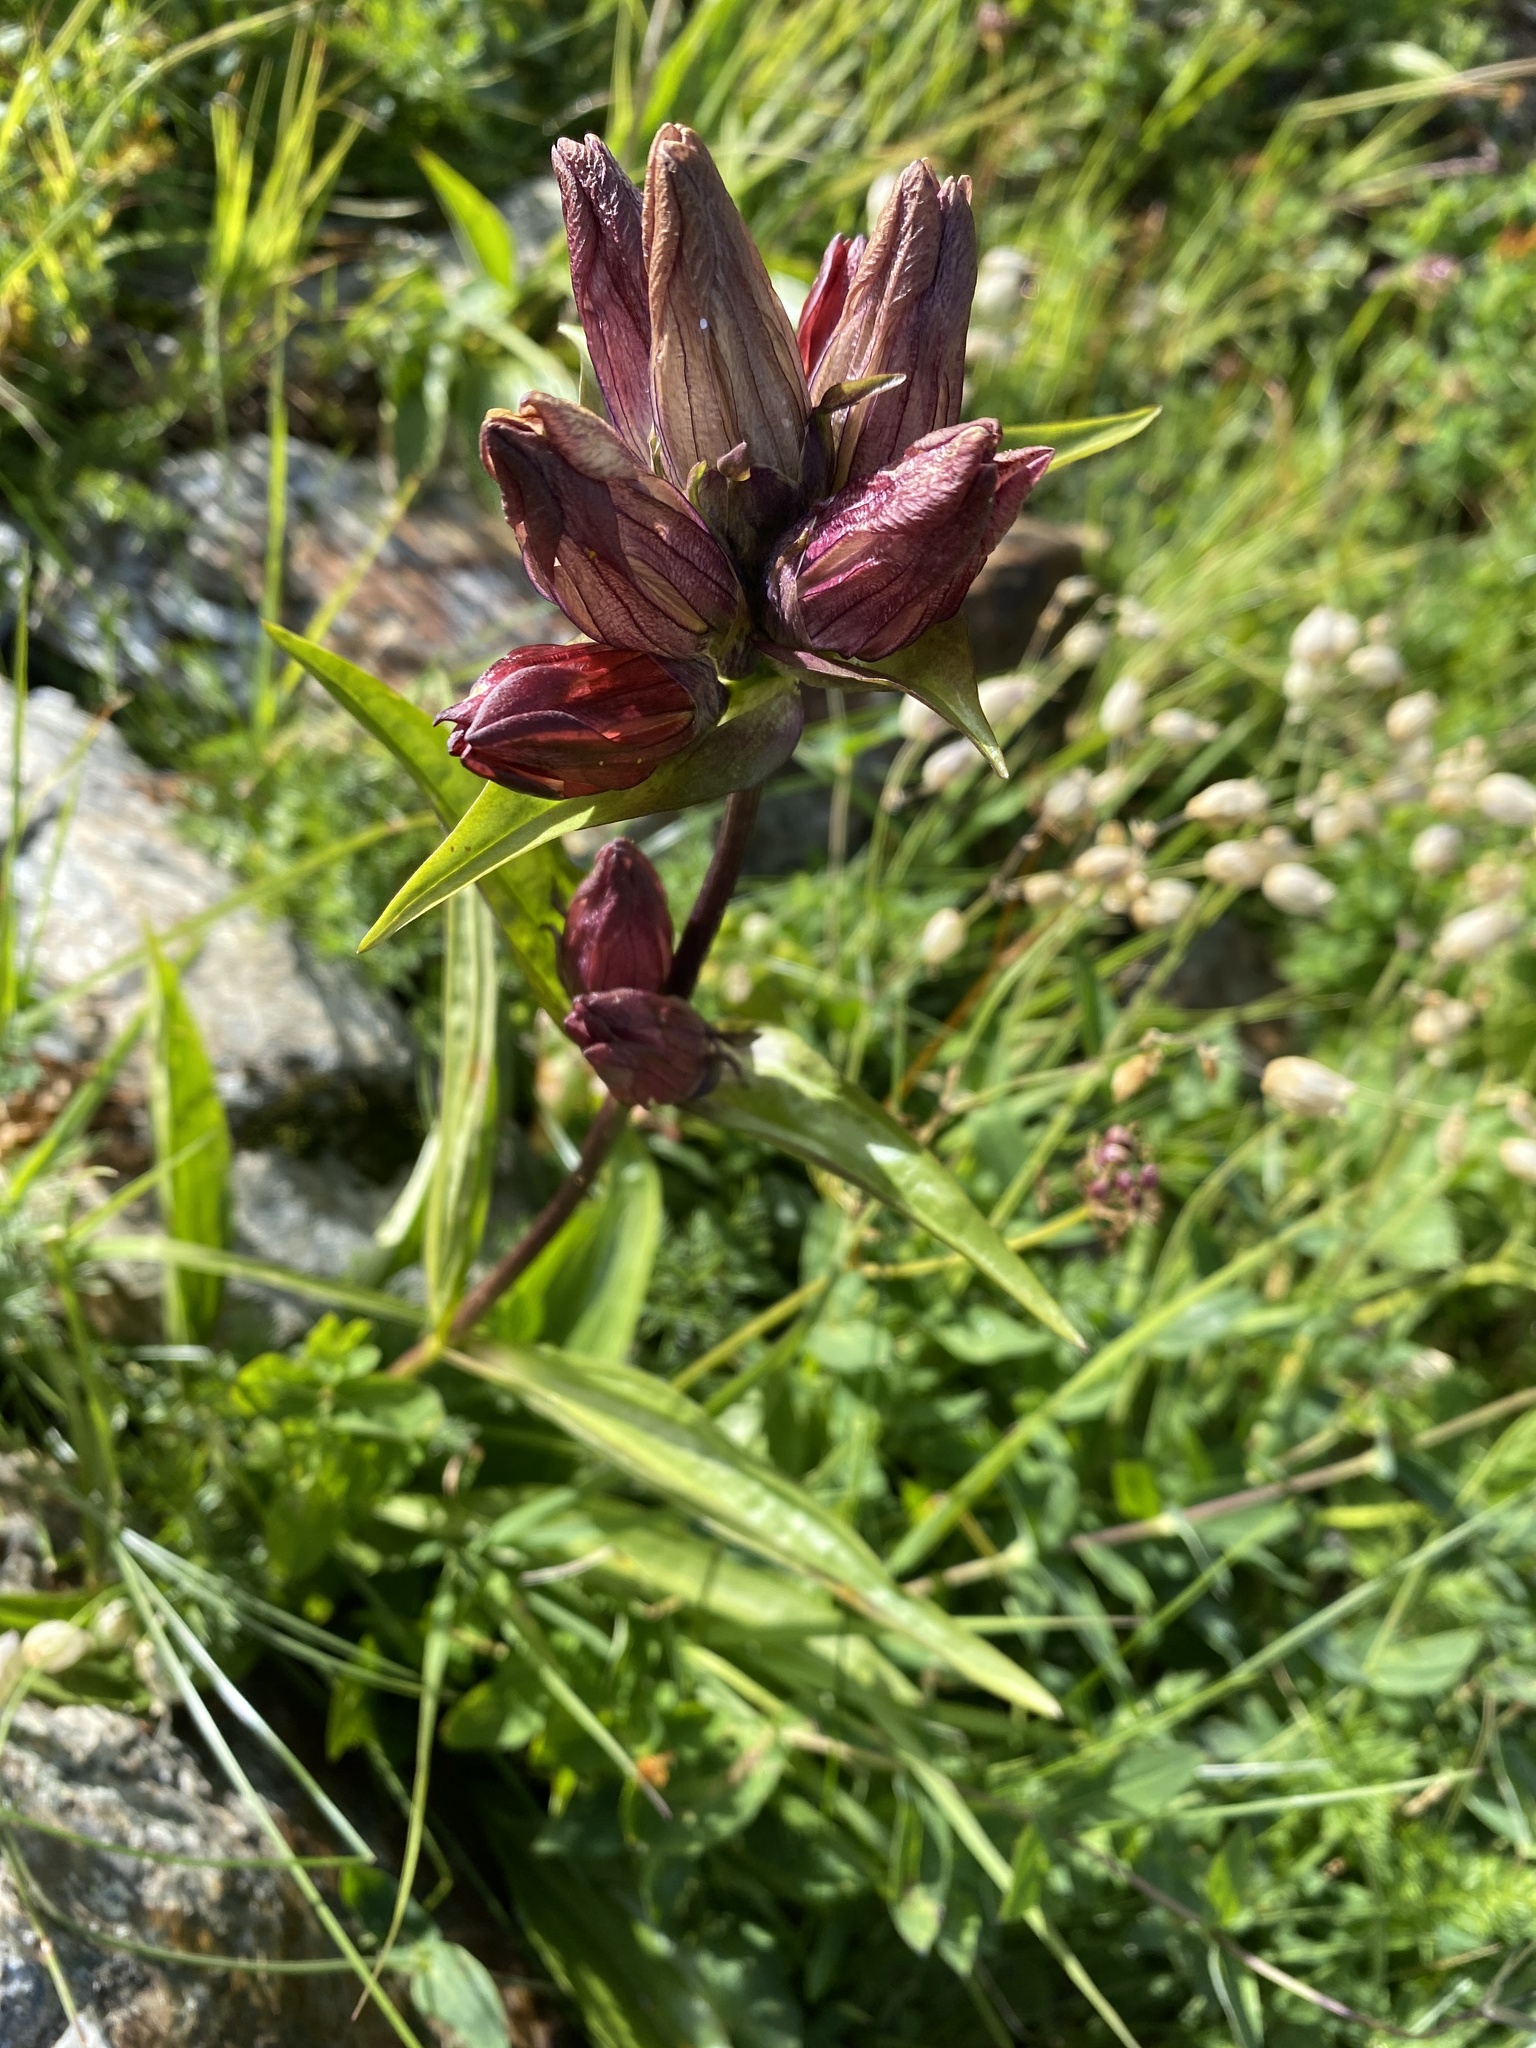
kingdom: Plantae
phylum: Tracheophyta
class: Magnoliopsida
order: Gentianales
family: Gentianaceae
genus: Gentiana
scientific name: Gentiana purpurea
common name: Purple gentian
